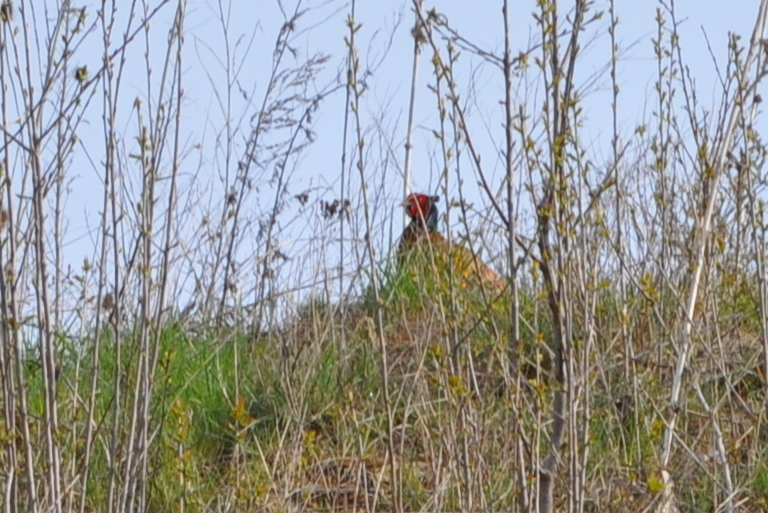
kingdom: Animalia
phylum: Chordata
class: Aves
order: Galliformes
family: Phasianidae
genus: Phasianus
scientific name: Phasianus colchicus
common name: Common pheasant
